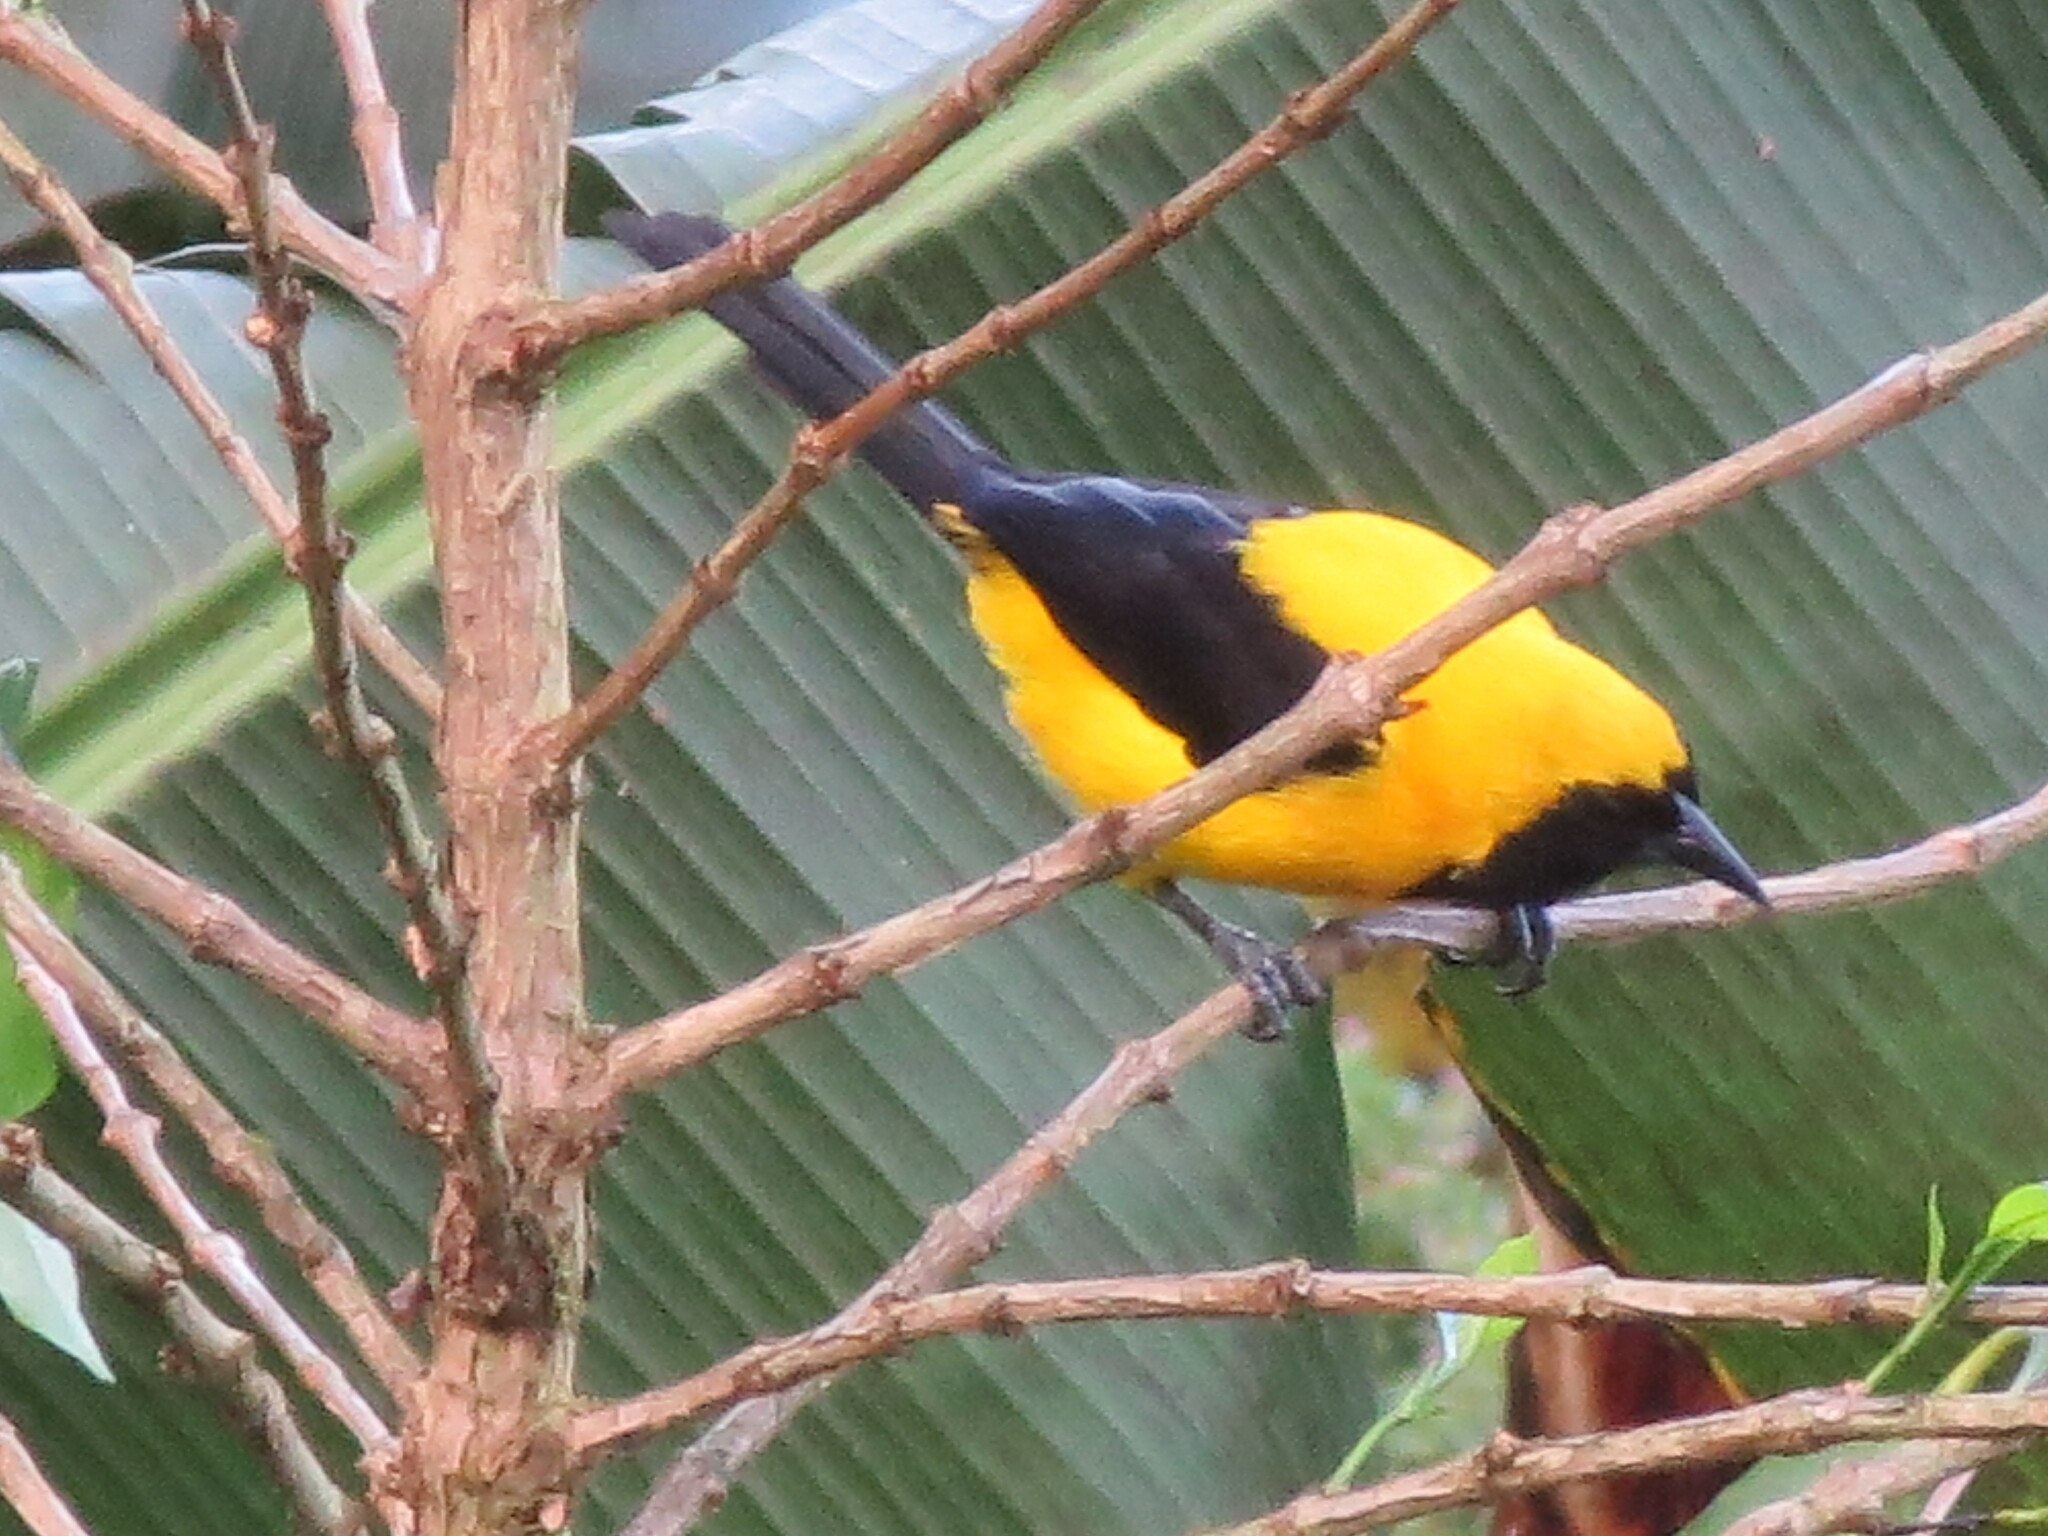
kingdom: Animalia
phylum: Chordata
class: Aves
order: Passeriformes
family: Icteridae
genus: Icterus
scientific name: Icterus chrysater
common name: Yellow-backed oriole
